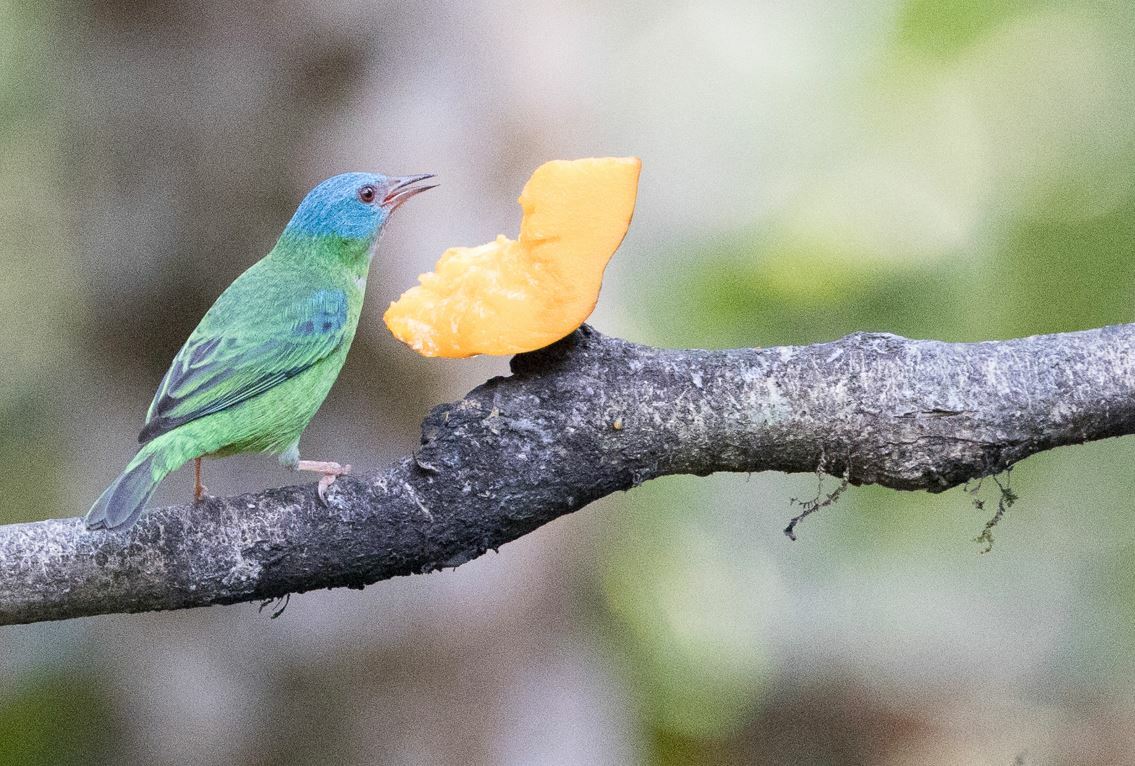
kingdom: Animalia
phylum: Chordata
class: Aves
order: Passeriformes
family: Thraupidae
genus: Dacnis
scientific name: Dacnis cayana
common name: Blue dacnis
